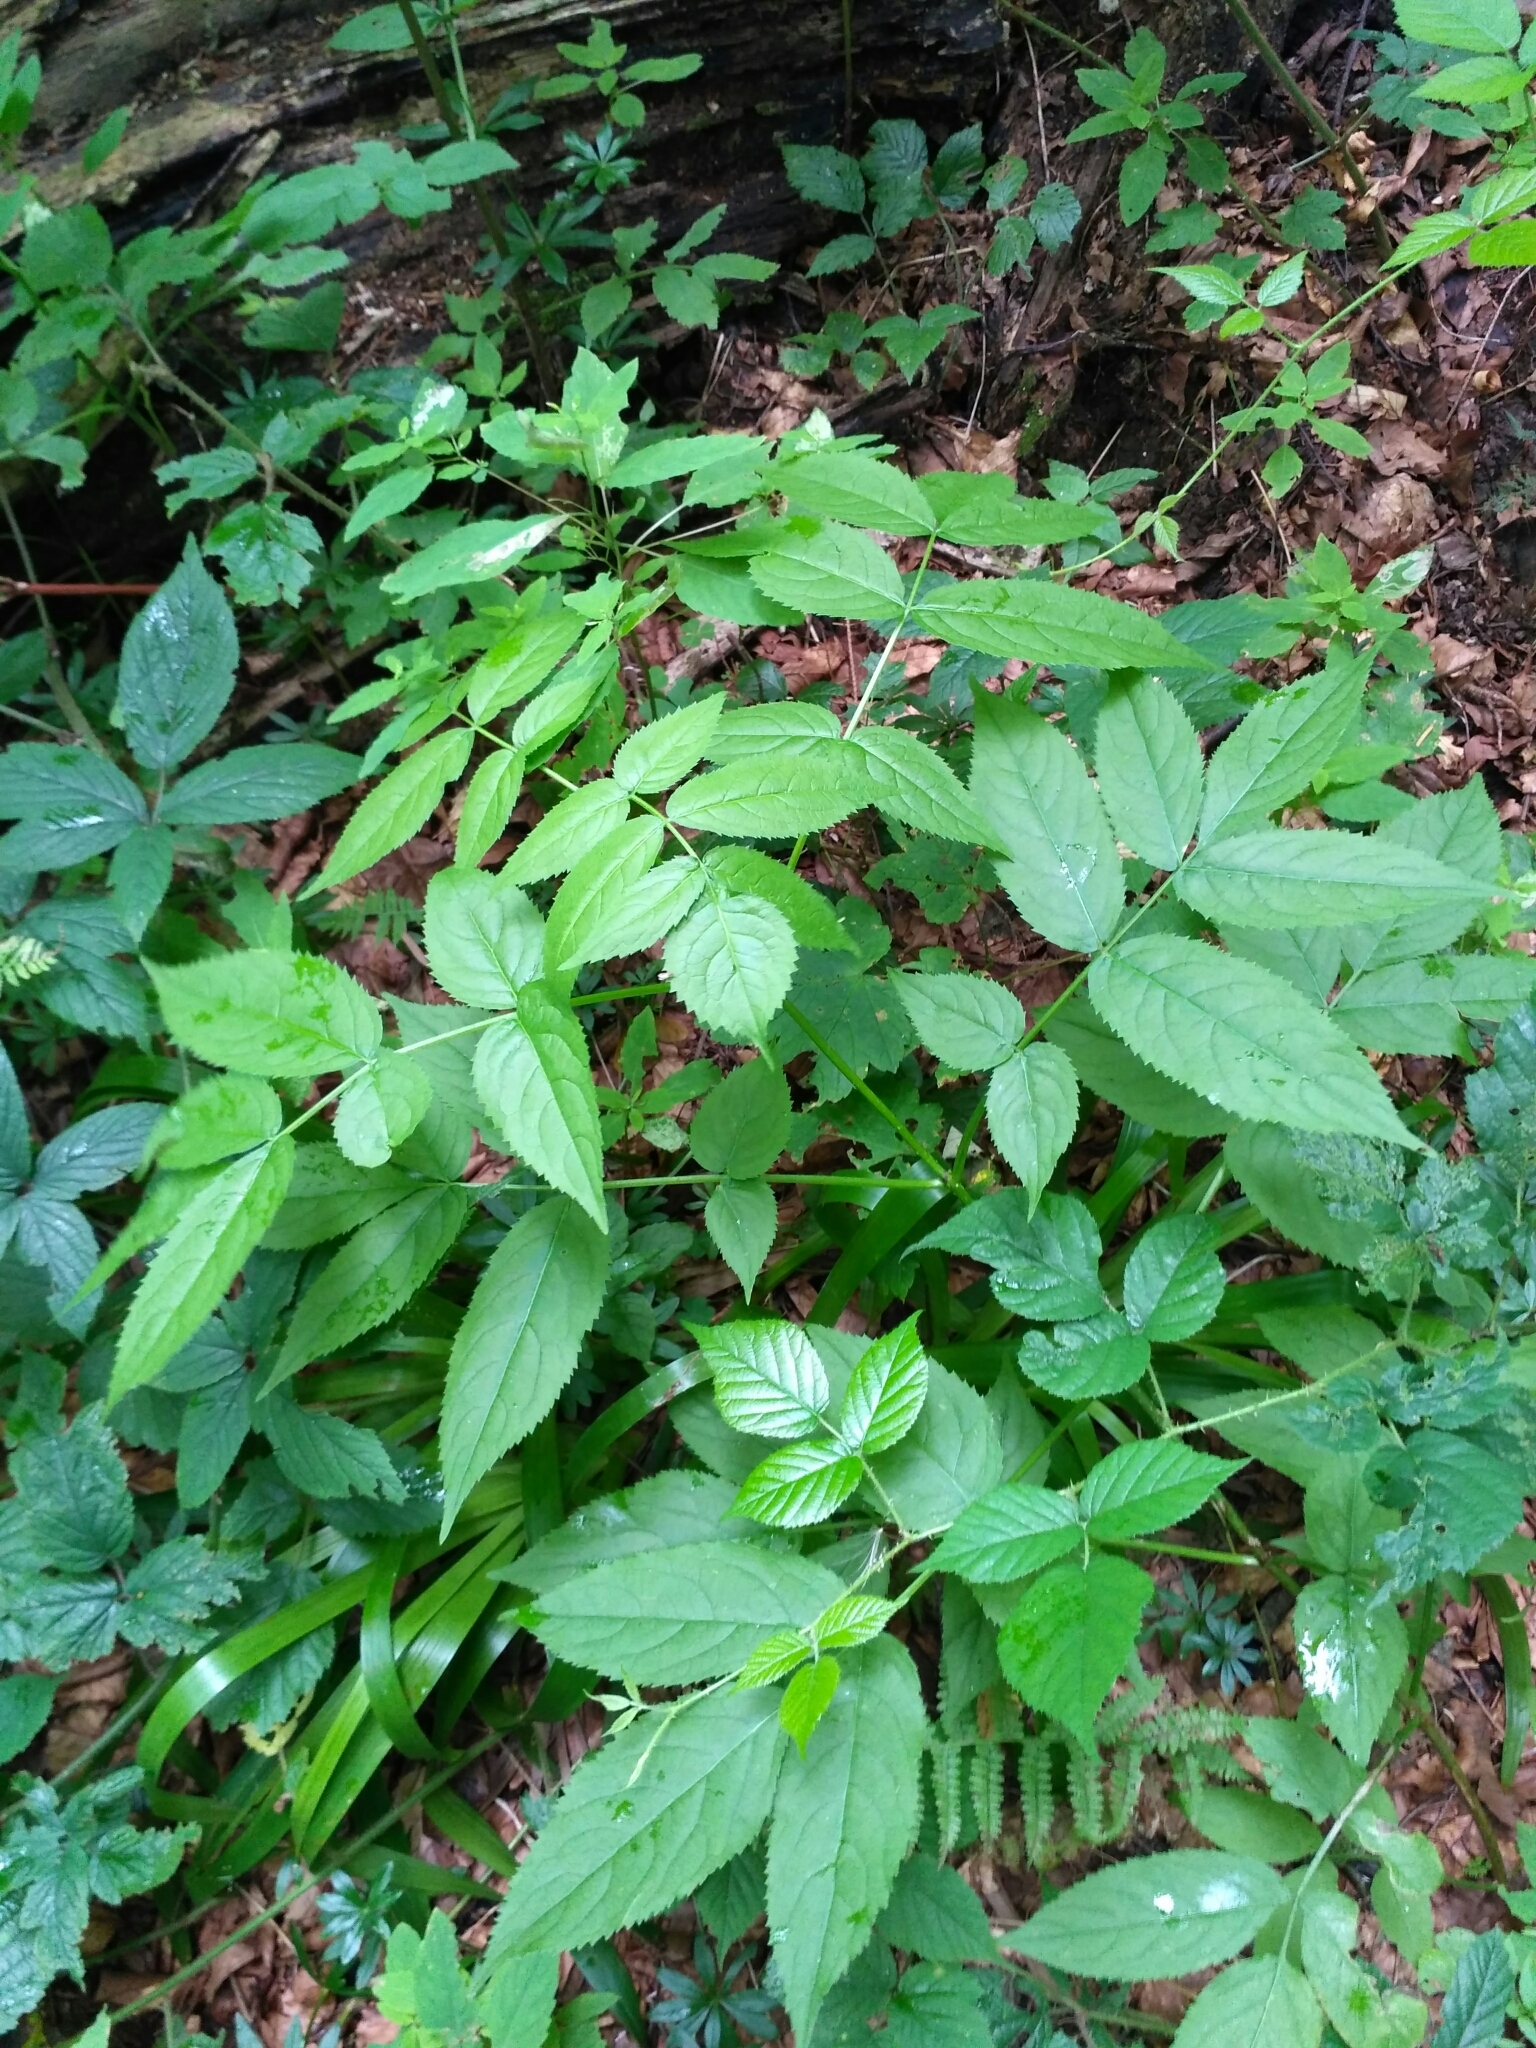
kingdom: Plantae
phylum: Tracheophyta
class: Magnoliopsida
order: Dipsacales
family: Viburnaceae
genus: Sambucus
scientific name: Sambucus nigra
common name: Elder
